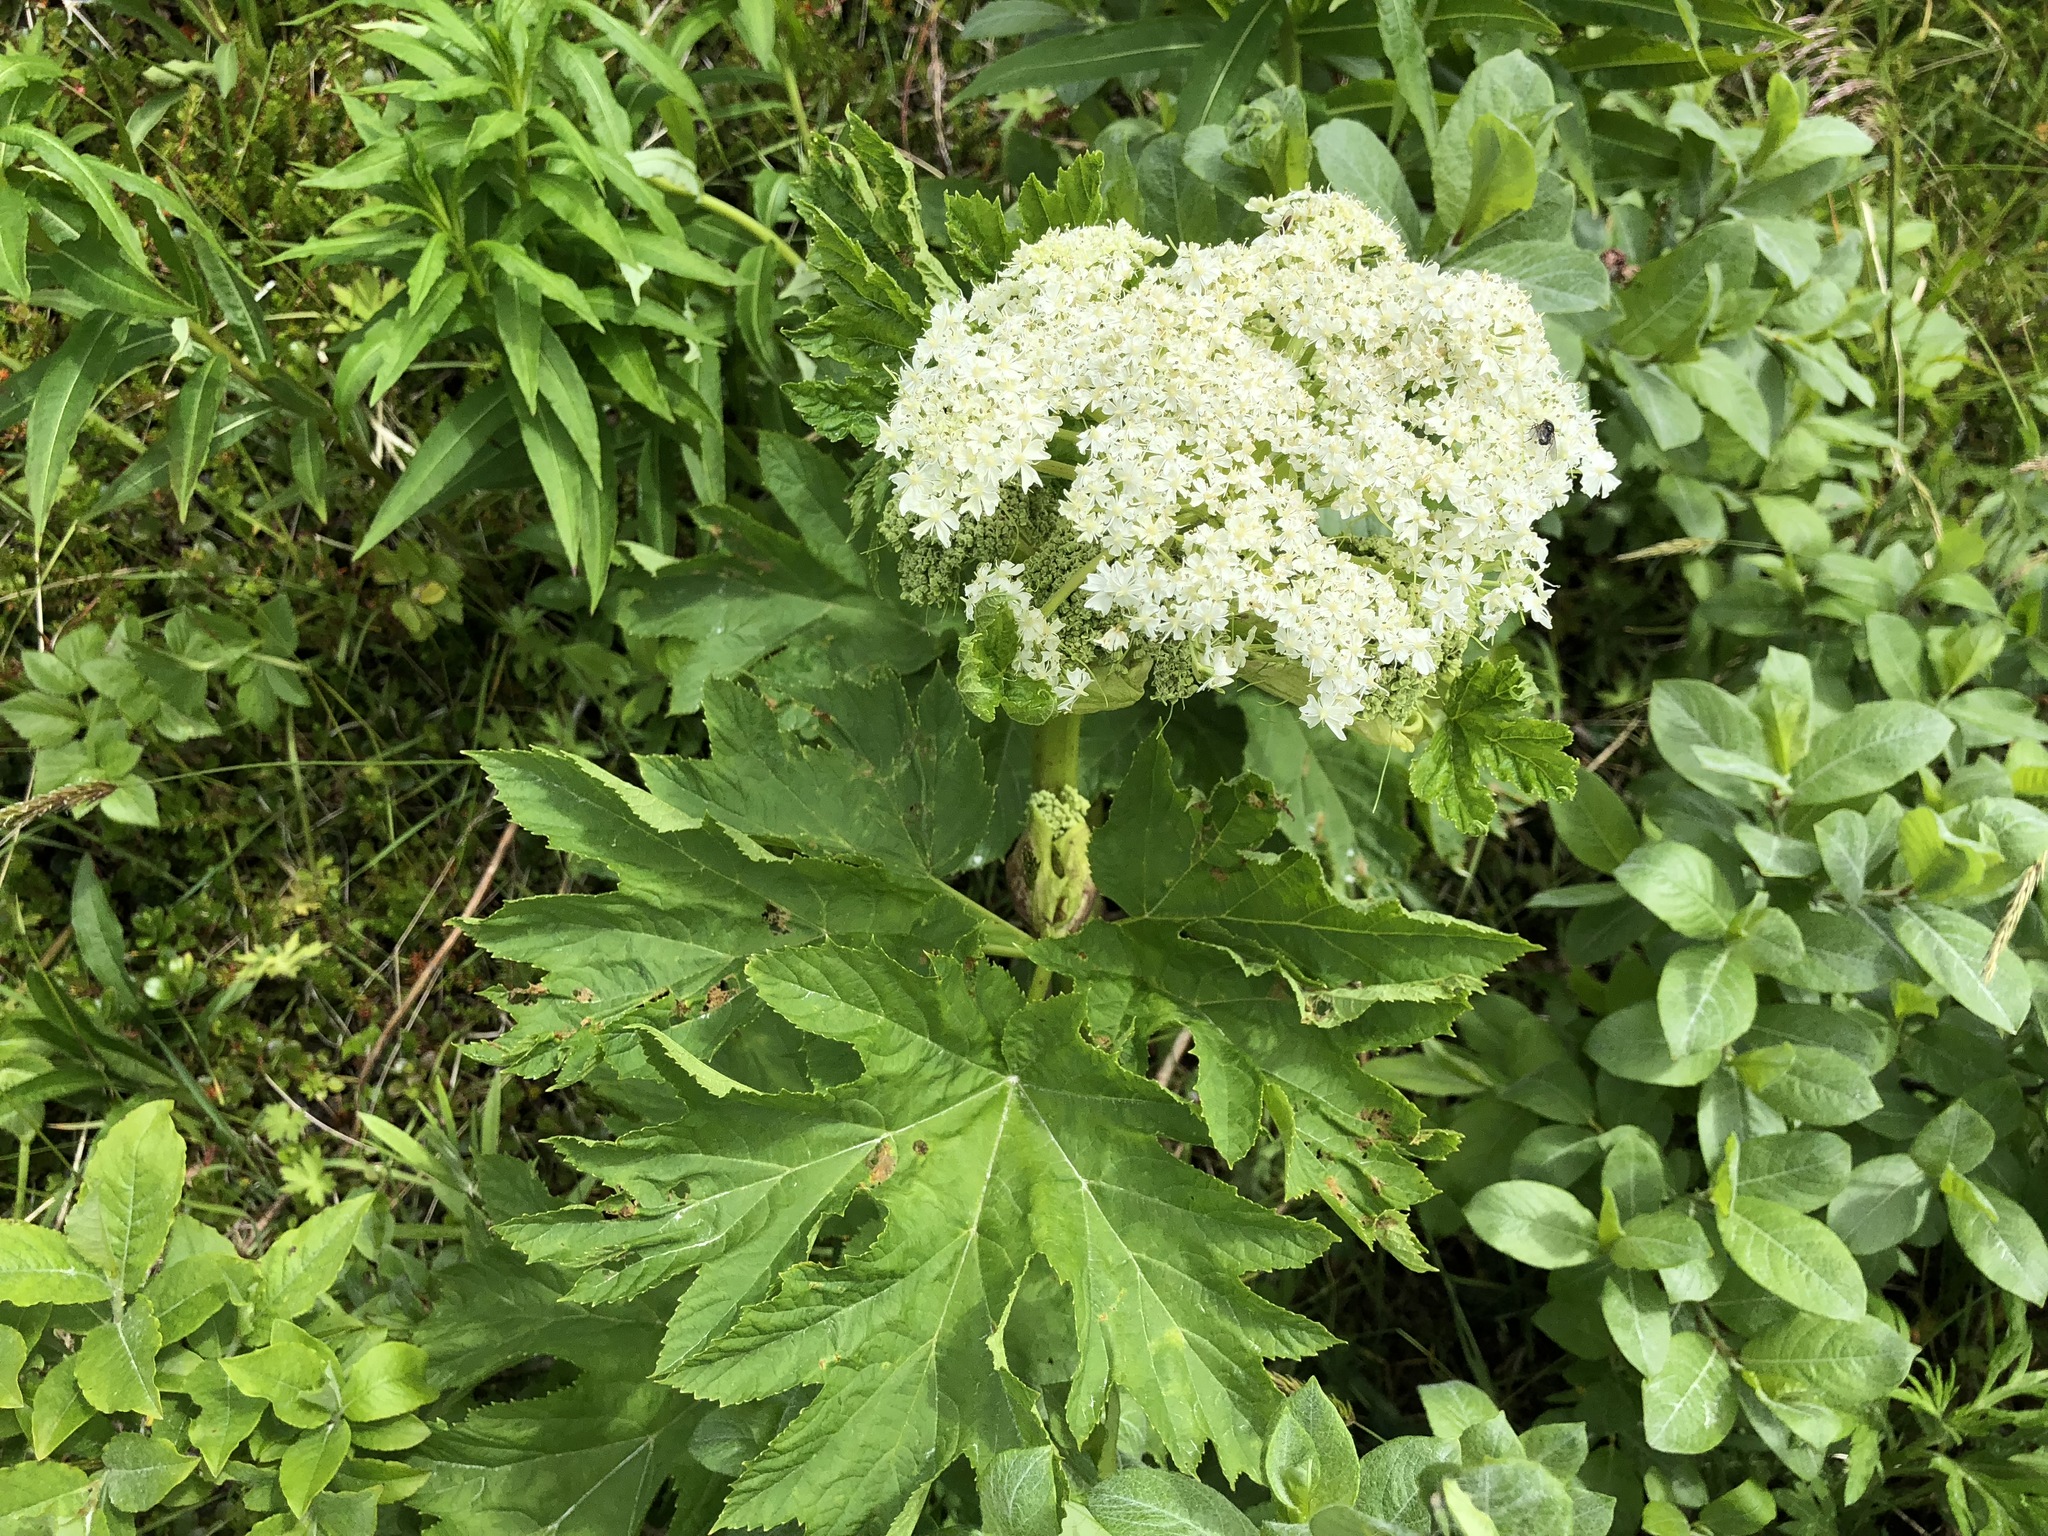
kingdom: Plantae
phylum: Tracheophyta
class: Magnoliopsida
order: Apiales
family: Apiaceae
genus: Heracleum
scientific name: Heracleum maximum
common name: American cow parsnip
